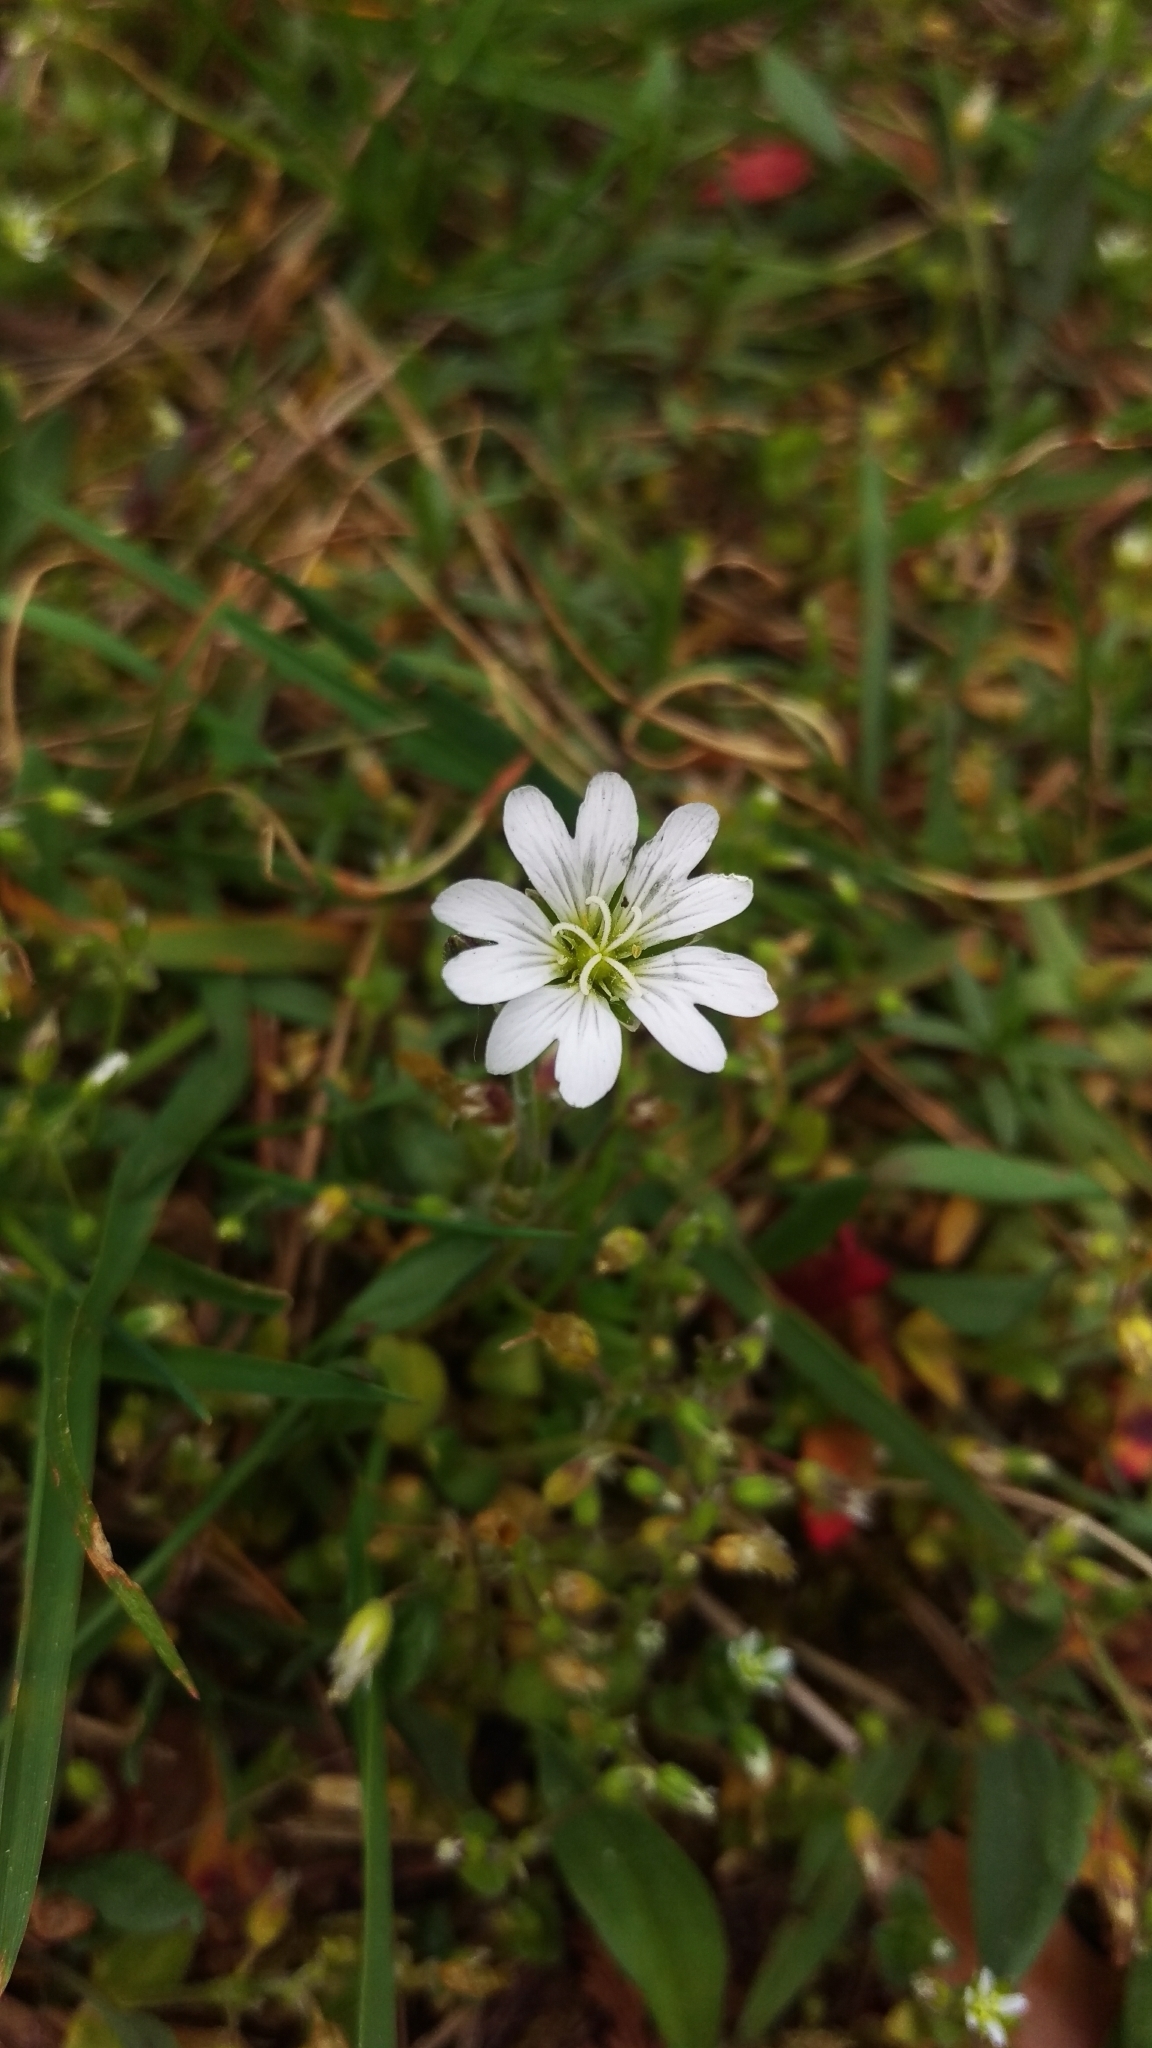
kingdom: Plantae
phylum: Tracheophyta
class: Magnoliopsida
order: Caryophyllales
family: Caryophyllaceae
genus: Cerastium
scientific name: Cerastium arvense
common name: Field mouse-ear
